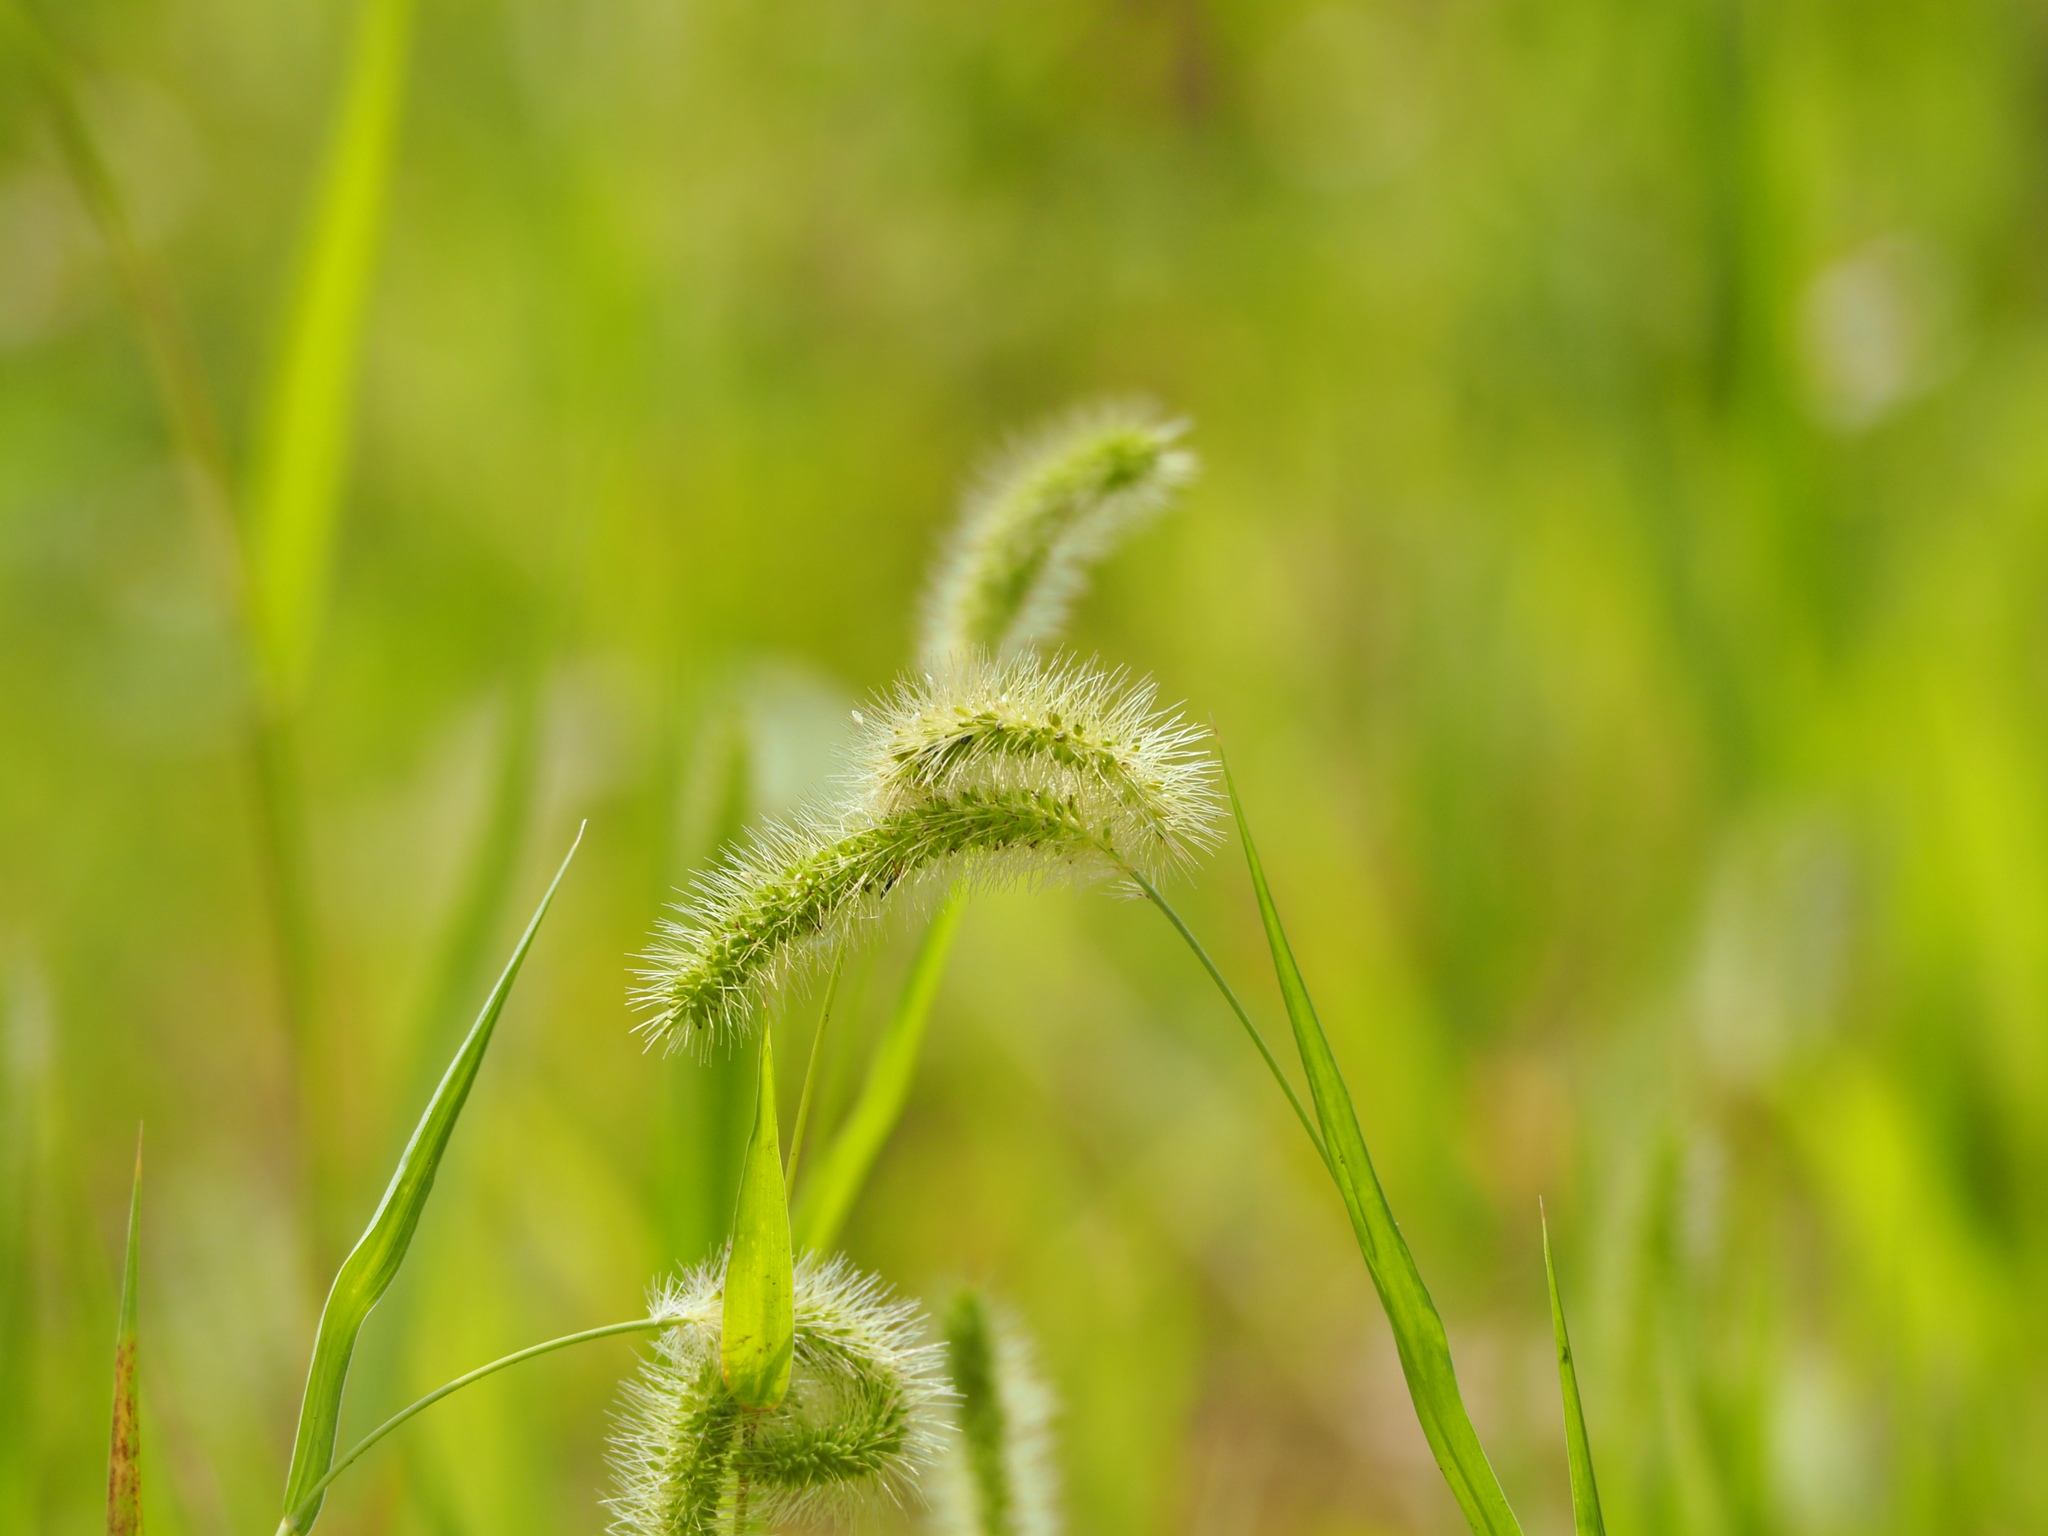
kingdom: Plantae
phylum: Tracheophyta
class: Liliopsida
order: Poales
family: Poaceae
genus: Setaria
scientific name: Setaria verticillata
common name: Hooked bristlegrass
